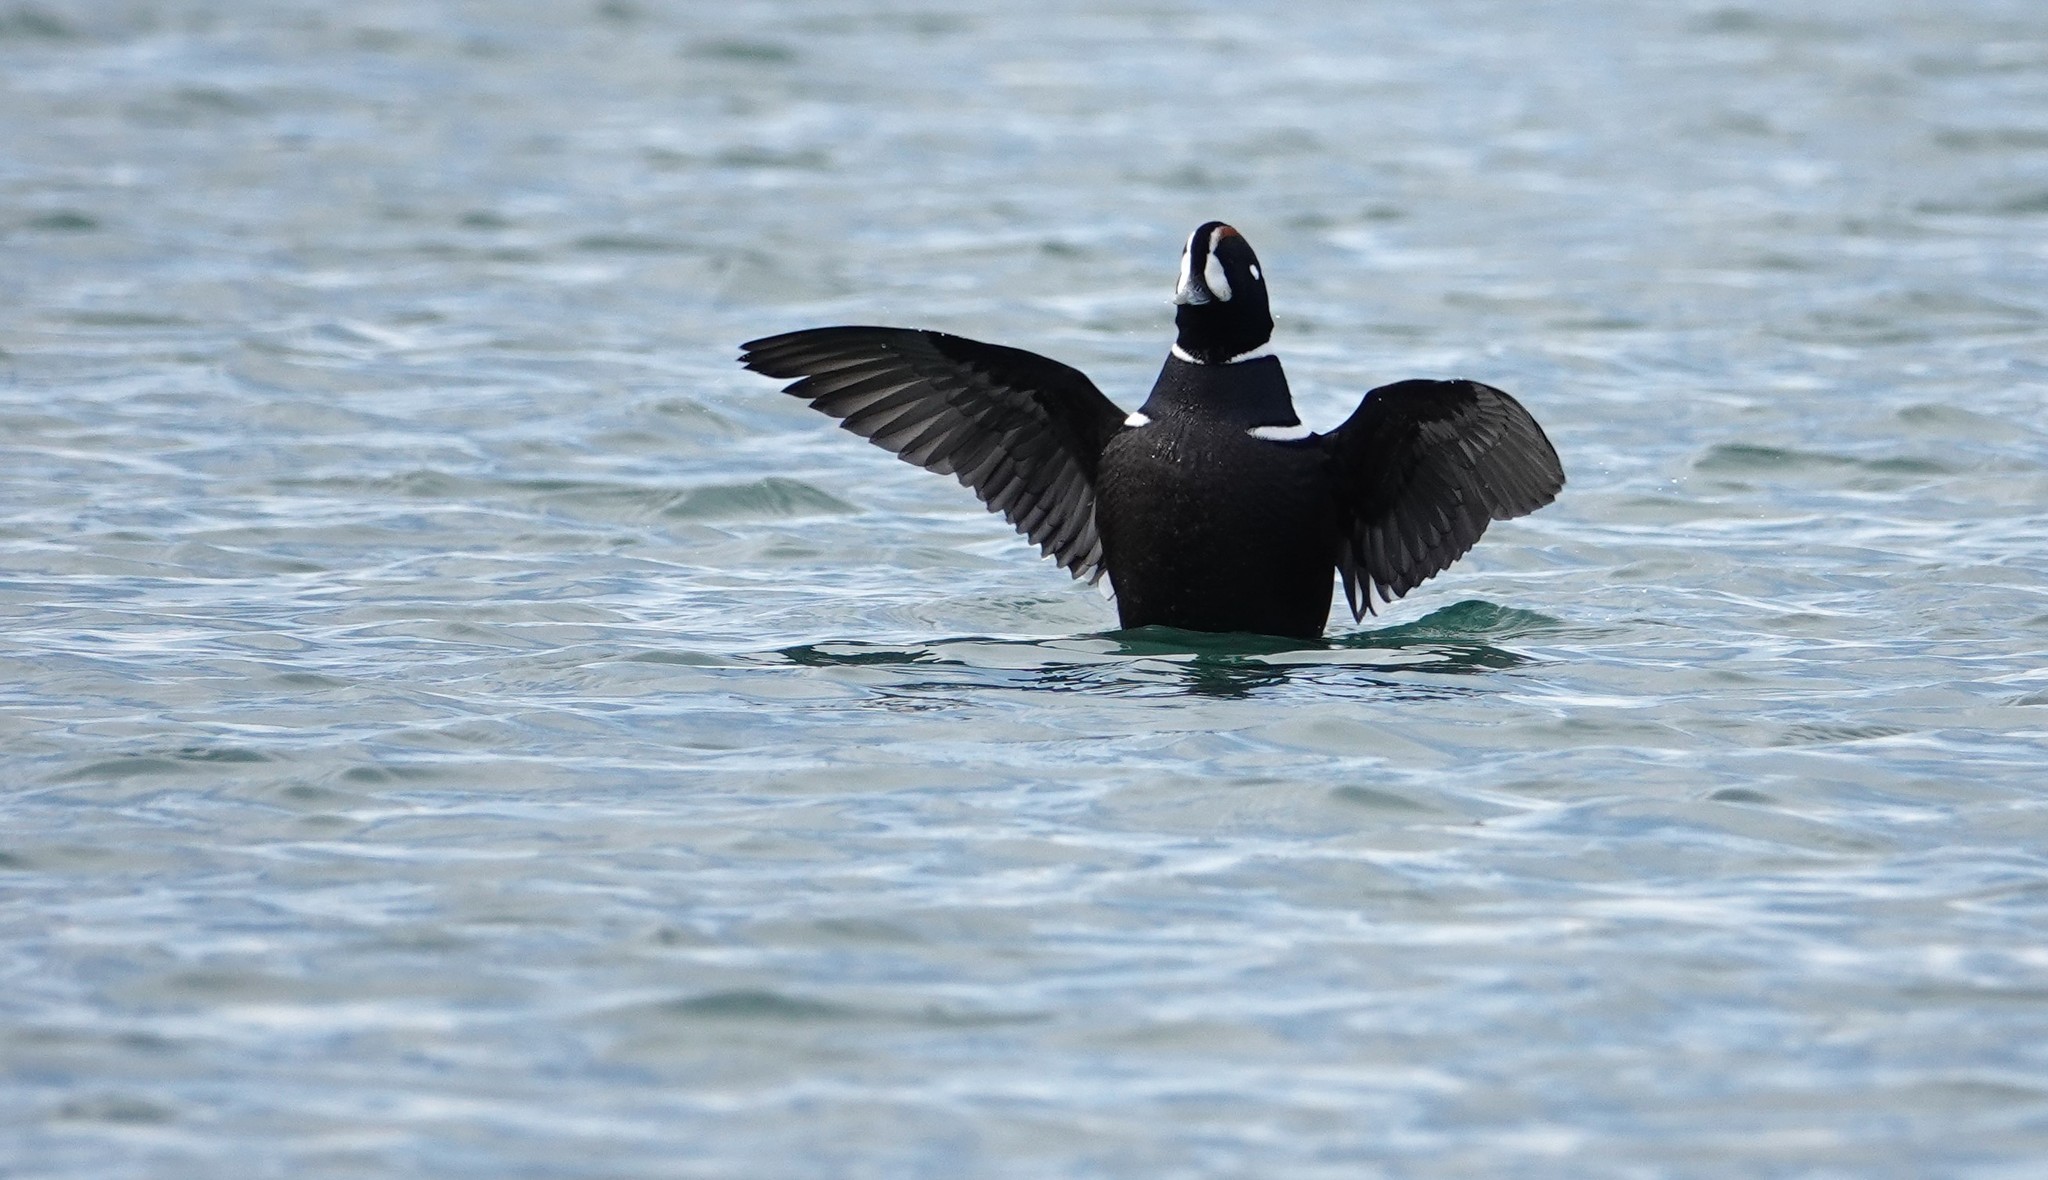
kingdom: Animalia
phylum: Chordata
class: Aves
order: Anseriformes
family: Anatidae
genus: Histrionicus
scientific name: Histrionicus histrionicus
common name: Harlequin duck
